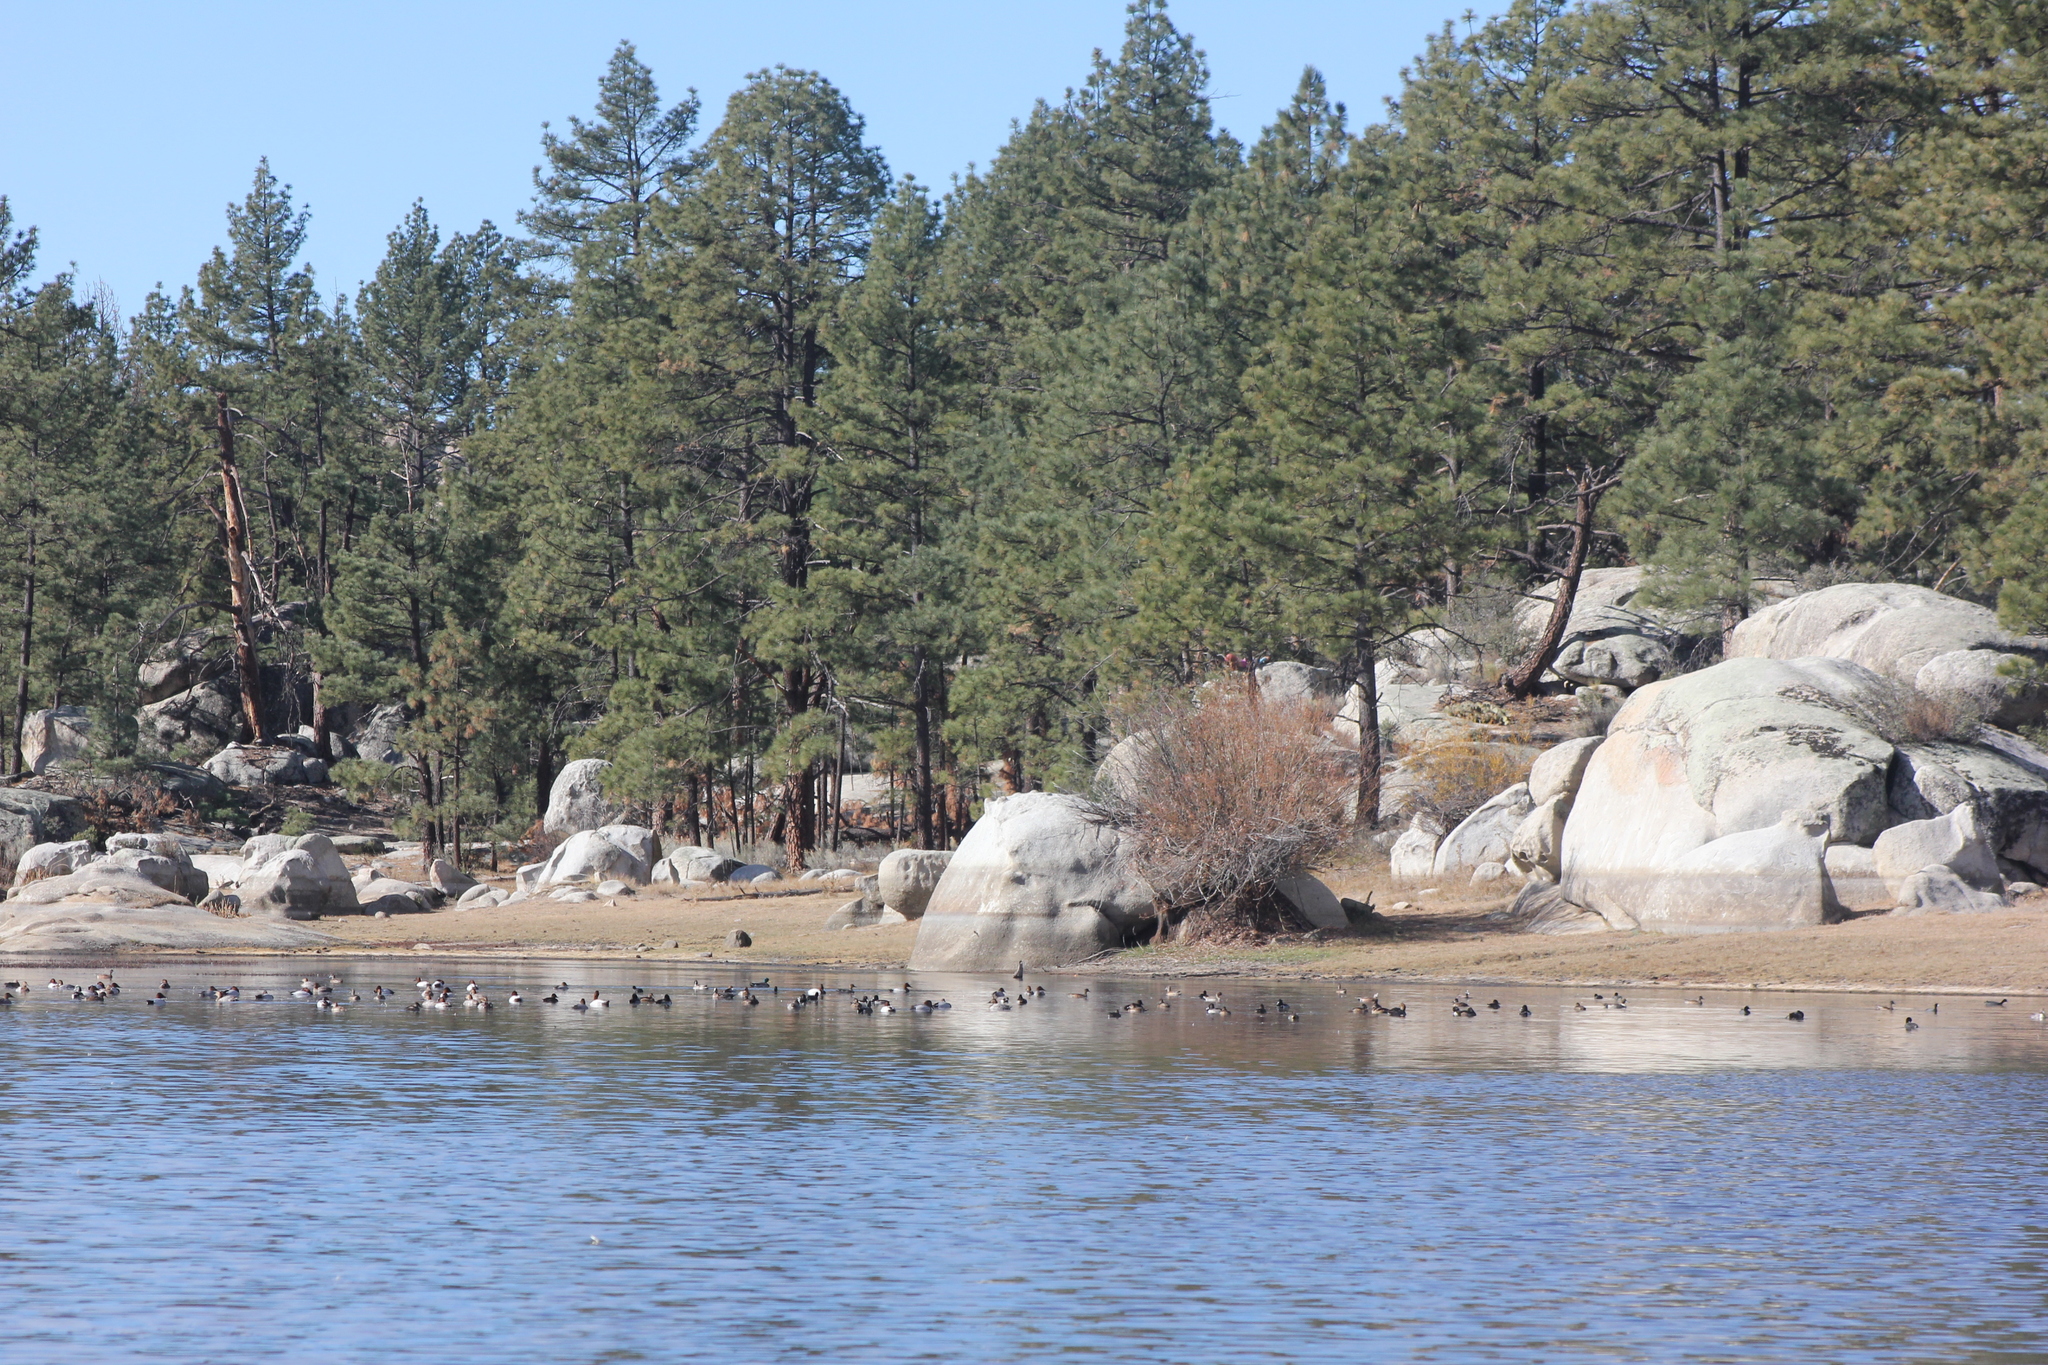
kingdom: Plantae
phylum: Tracheophyta
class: Pinopsida
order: Pinales
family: Pinaceae
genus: Pinus
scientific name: Pinus jeffreyi
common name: Jeffrey pine
